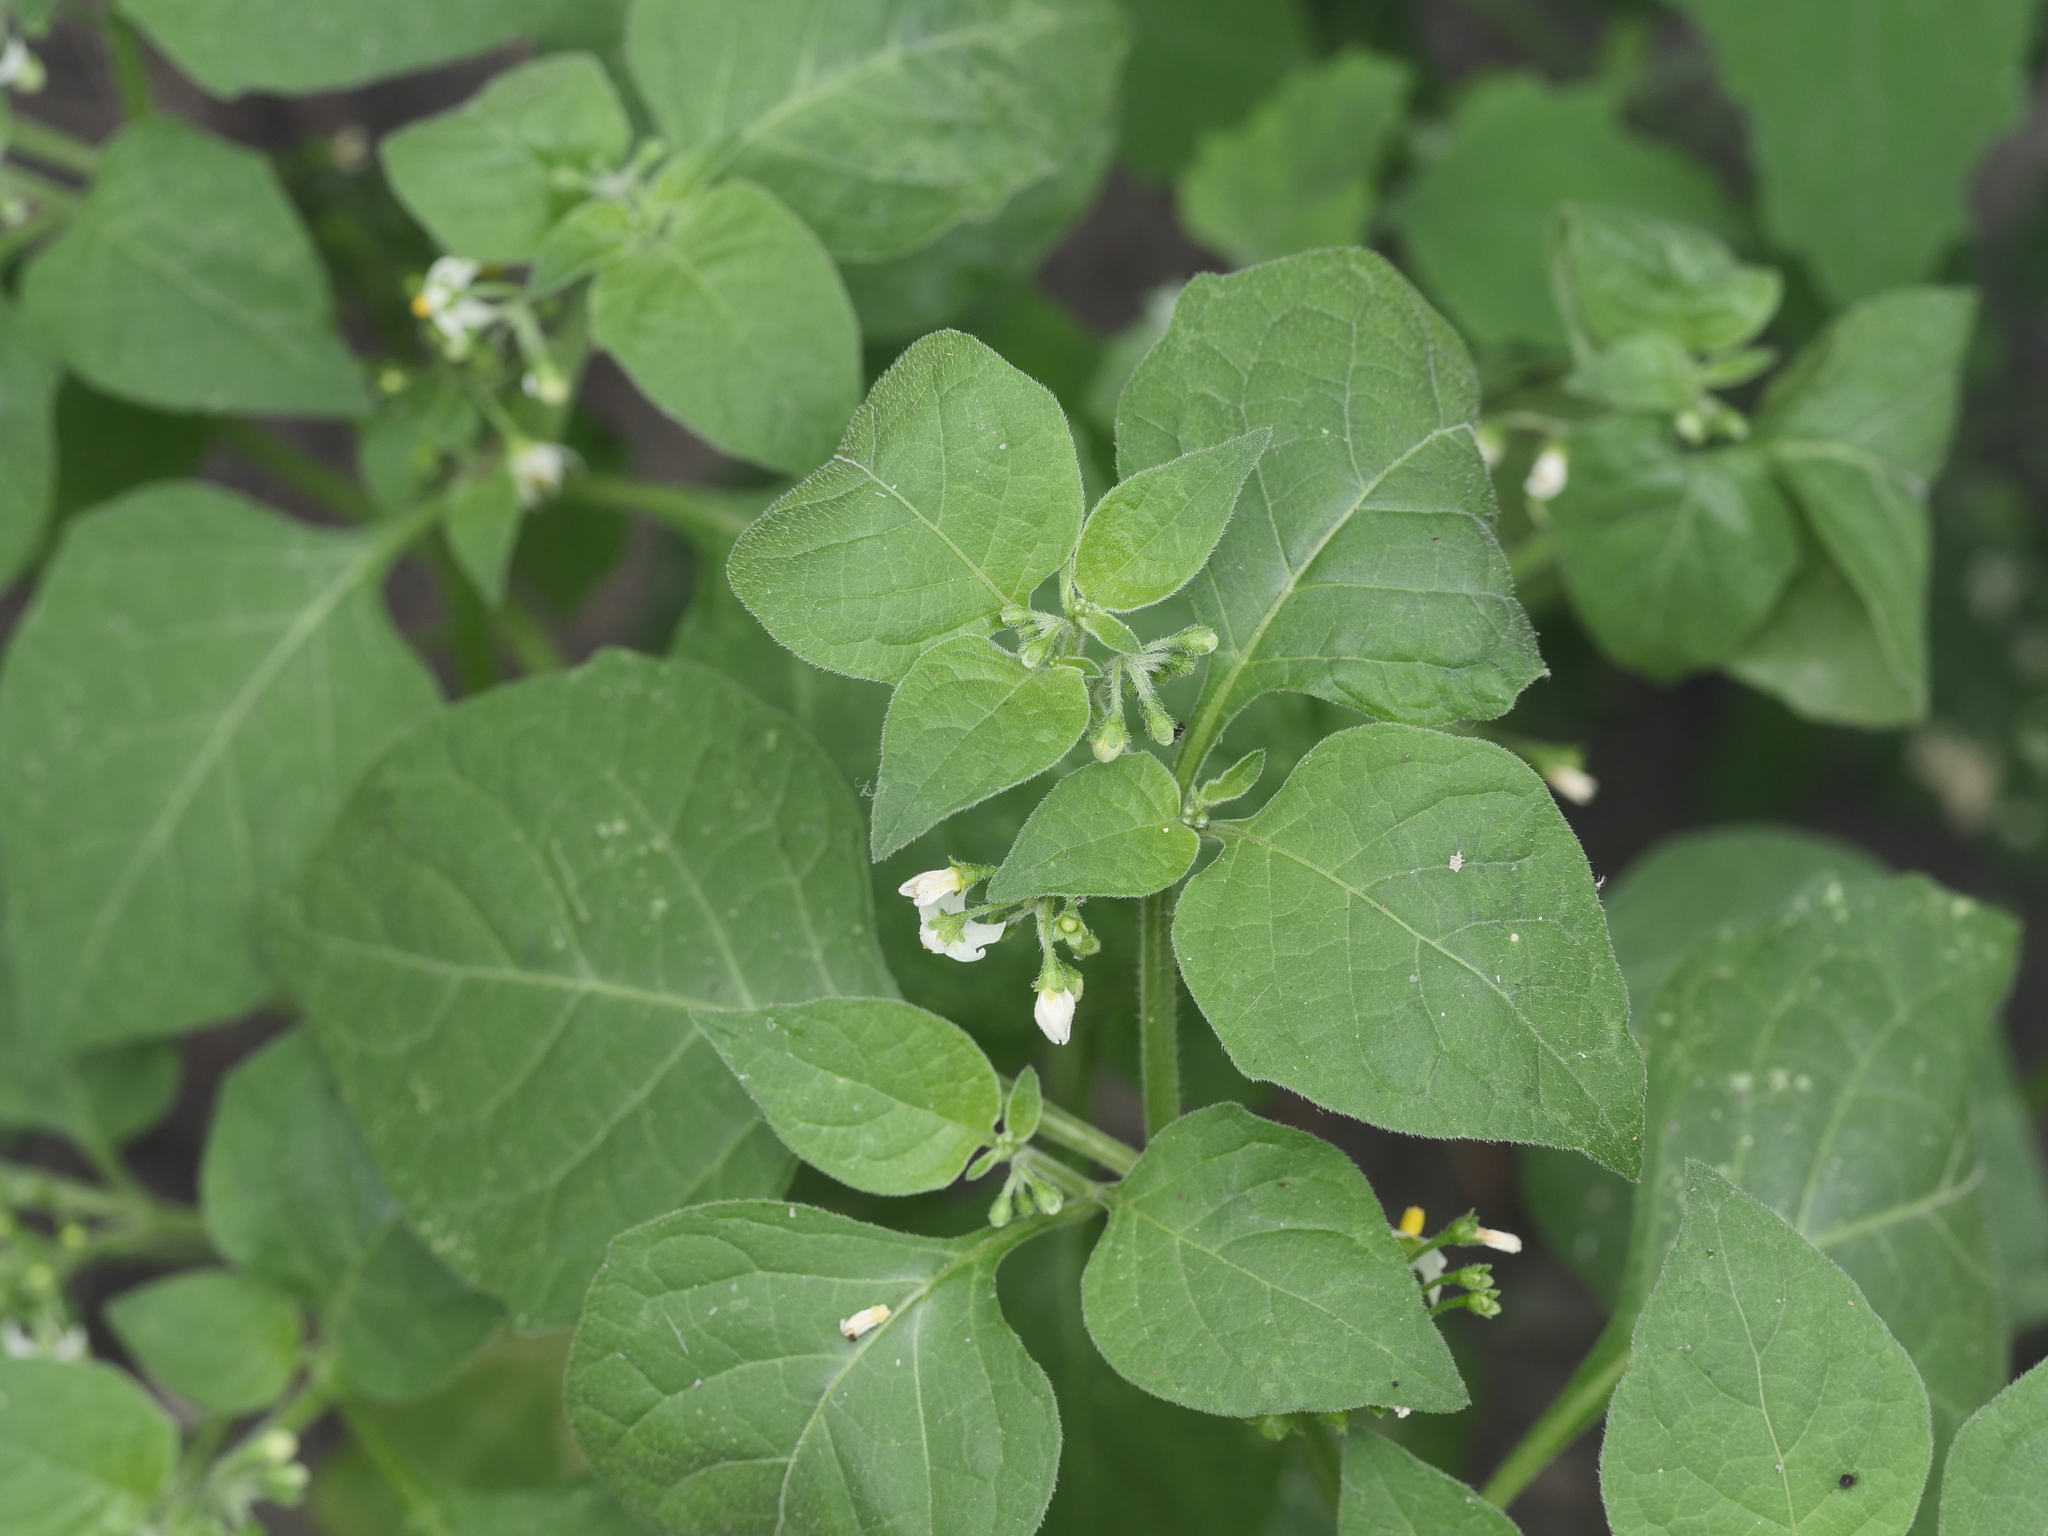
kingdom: Plantae
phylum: Tracheophyta
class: Magnoliopsida
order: Solanales
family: Solanaceae
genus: Solanum
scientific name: Solanum nigrum
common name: Black nightshade
